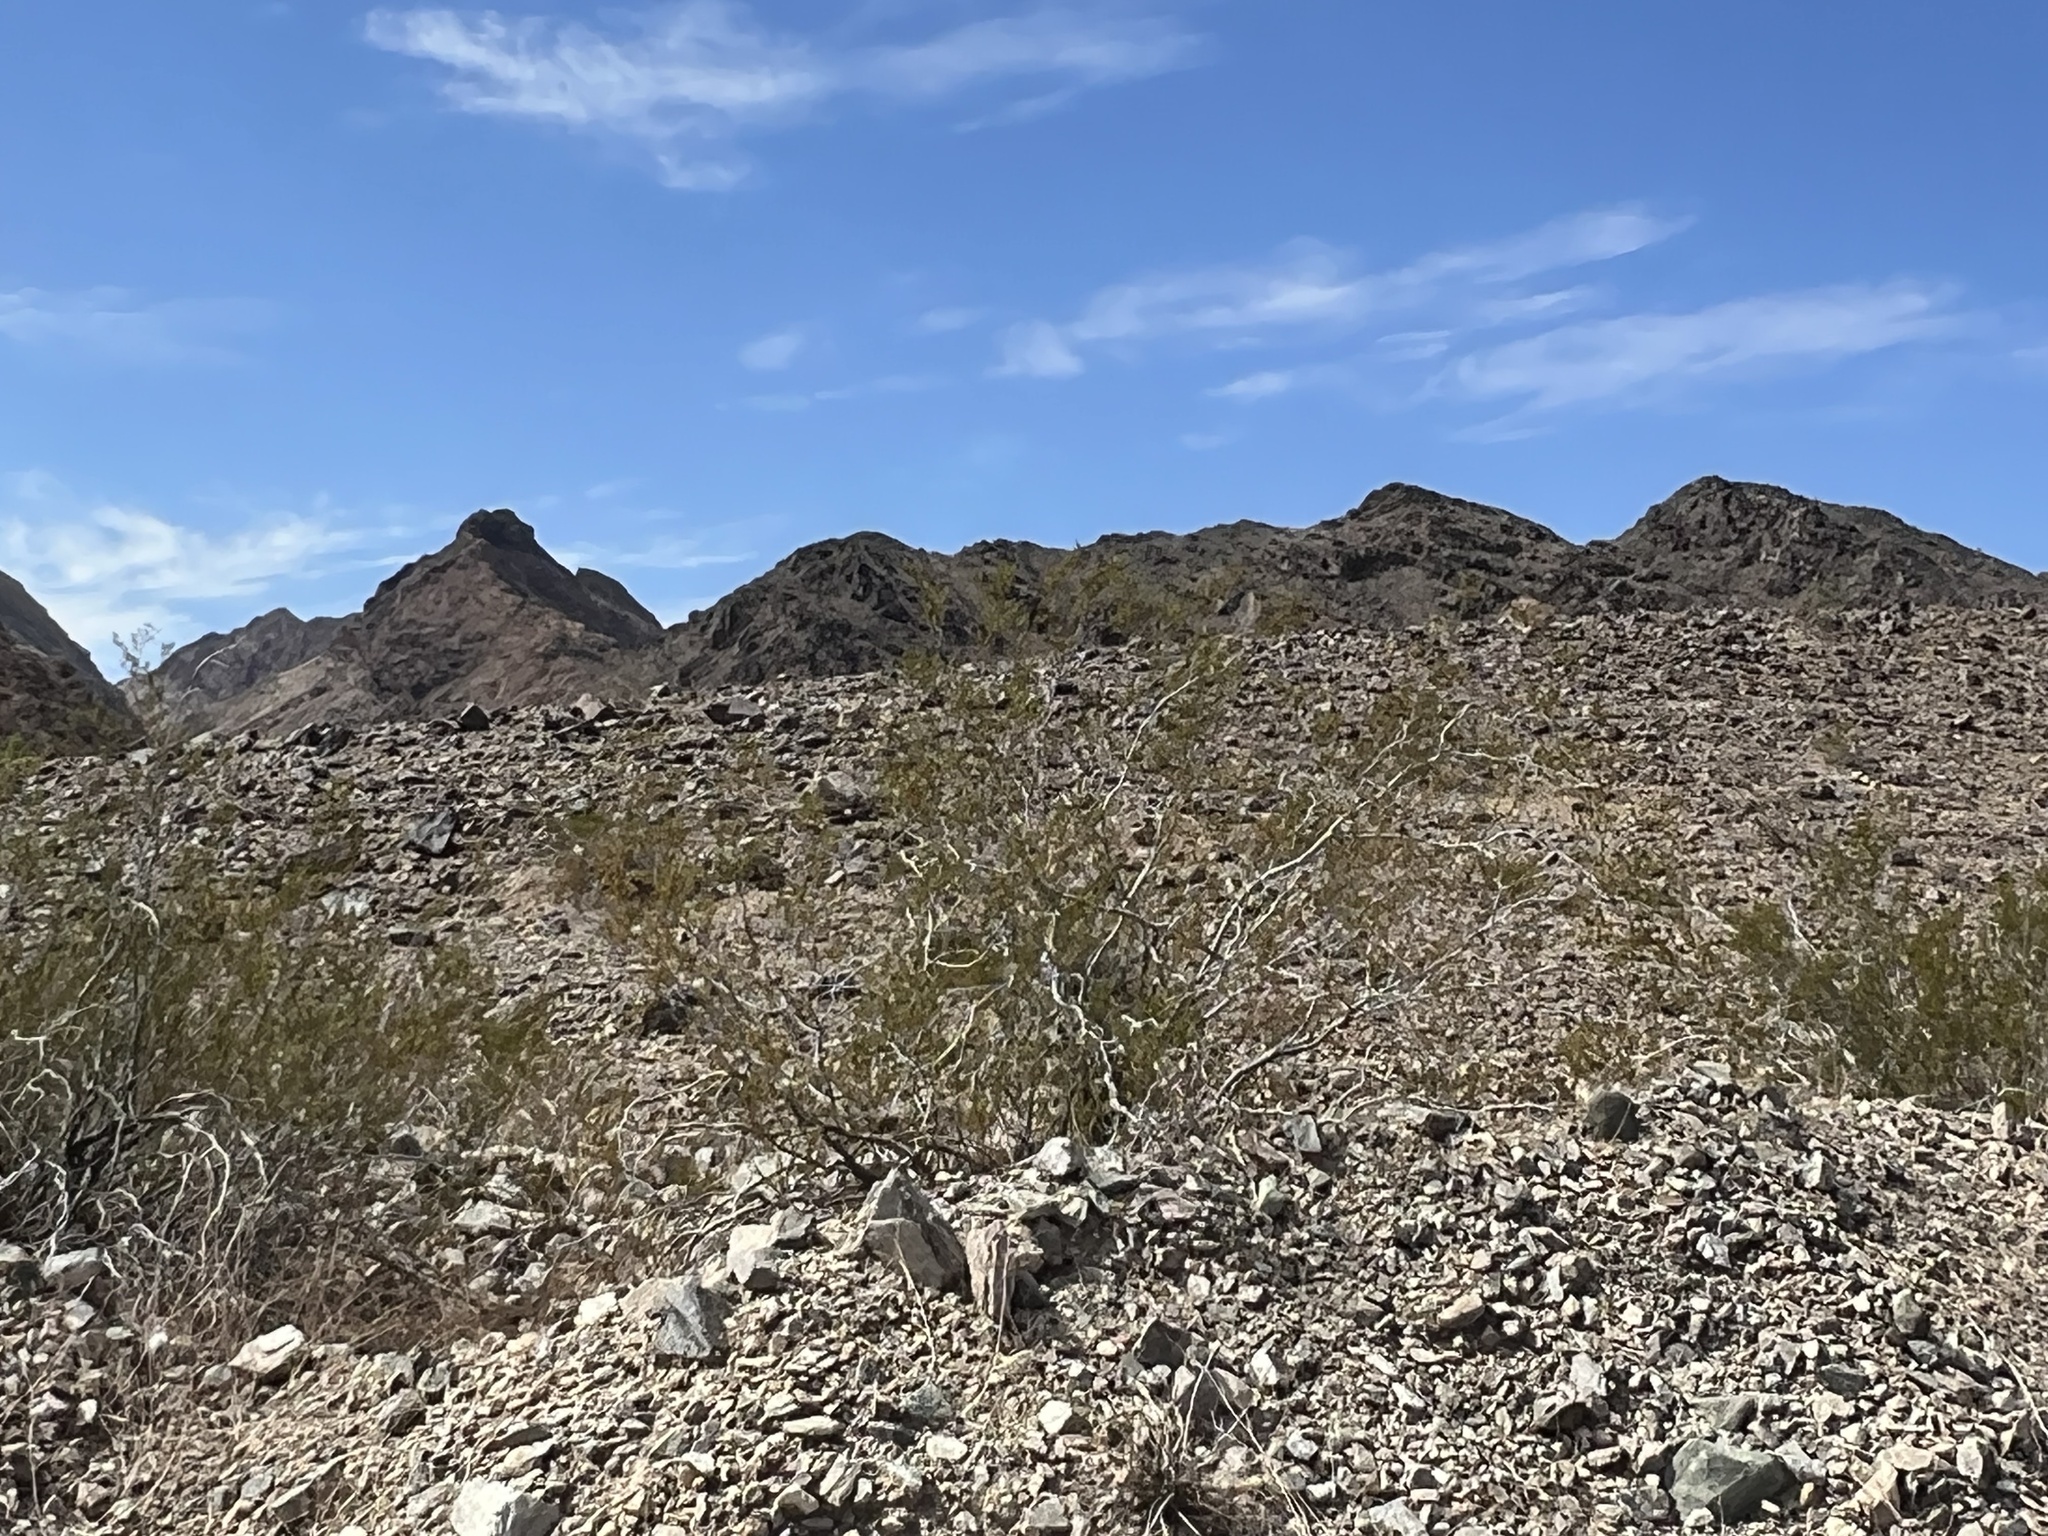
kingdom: Plantae
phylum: Tracheophyta
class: Magnoliopsida
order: Zygophyllales
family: Zygophyllaceae
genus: Larrea
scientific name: Larrea tridentata
